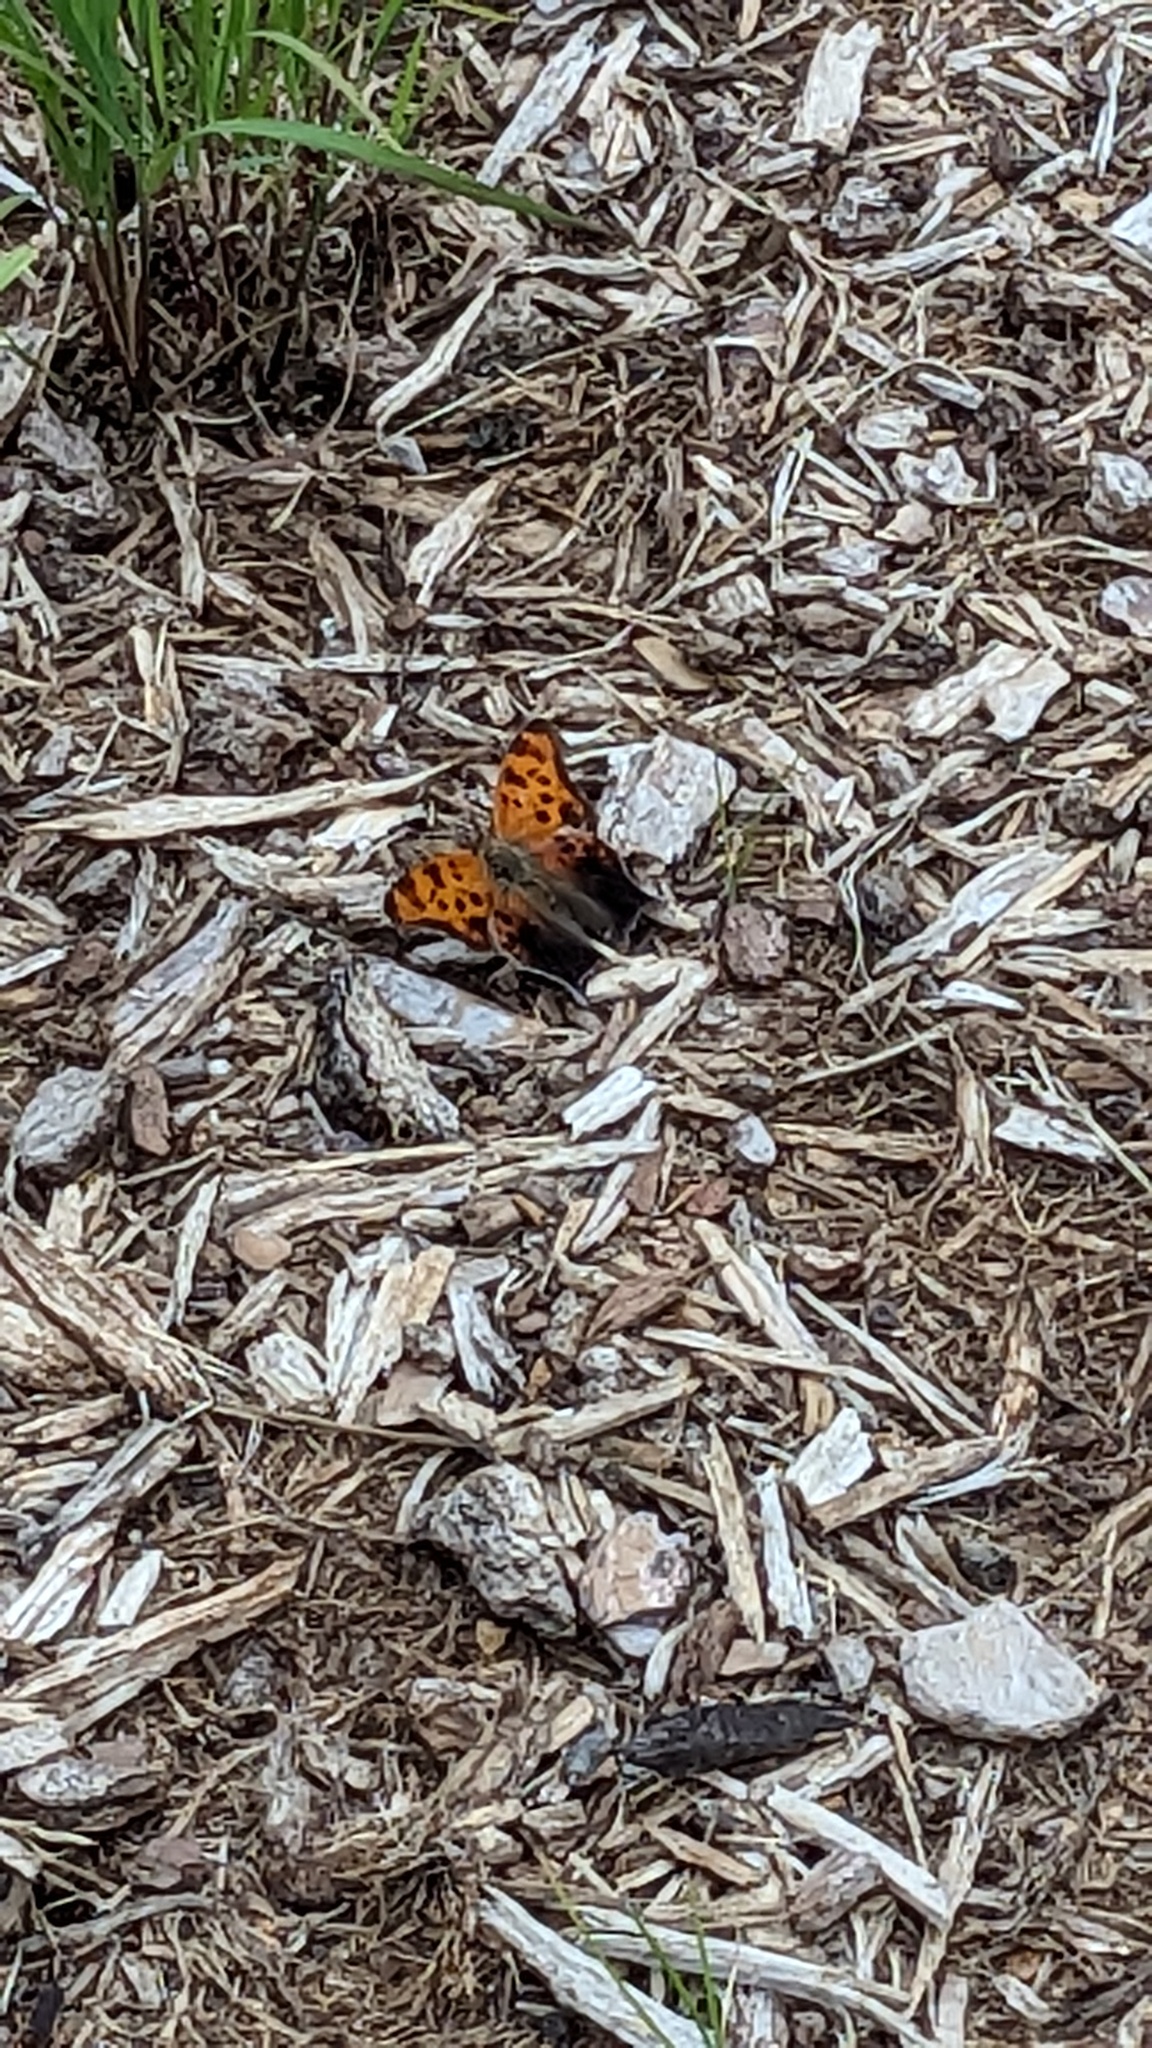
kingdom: Animalia
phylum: Arthropoda
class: Insecta
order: Lepidoptera
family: Nymphalidae
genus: Polygonia
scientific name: Polygonia interrogationis
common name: Question mark
